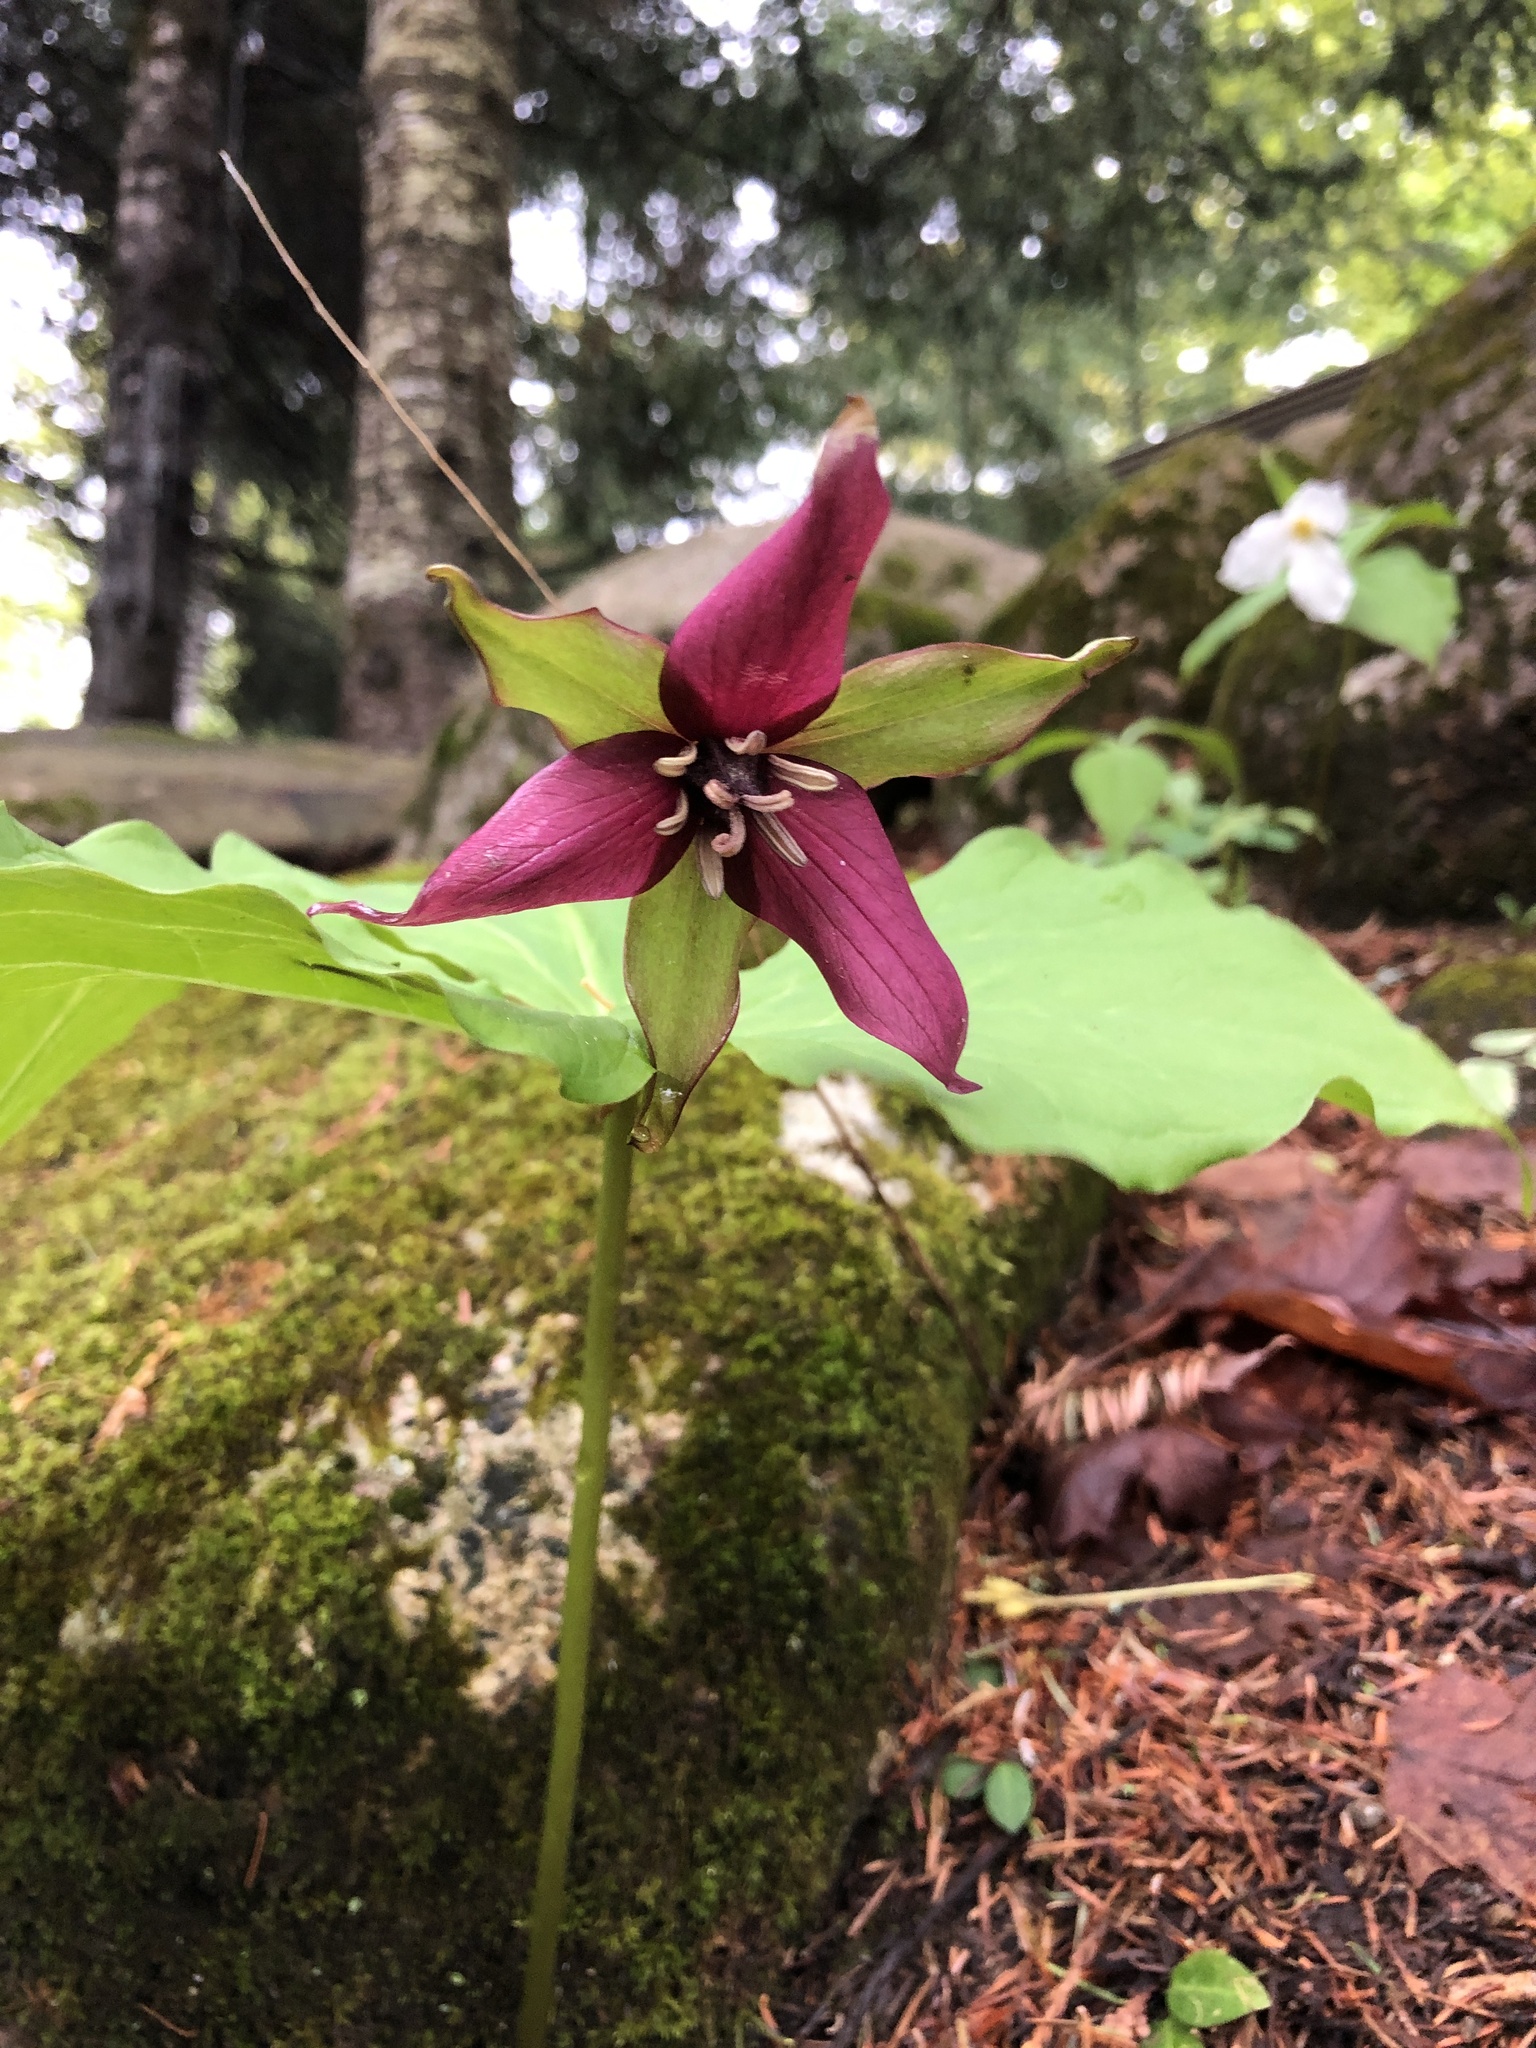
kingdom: Plantae
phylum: Tracheophyta
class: Liliopsida
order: Liliales
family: Melanthiaceae
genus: Trillium
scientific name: Trillium erectum
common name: Purple trillium
